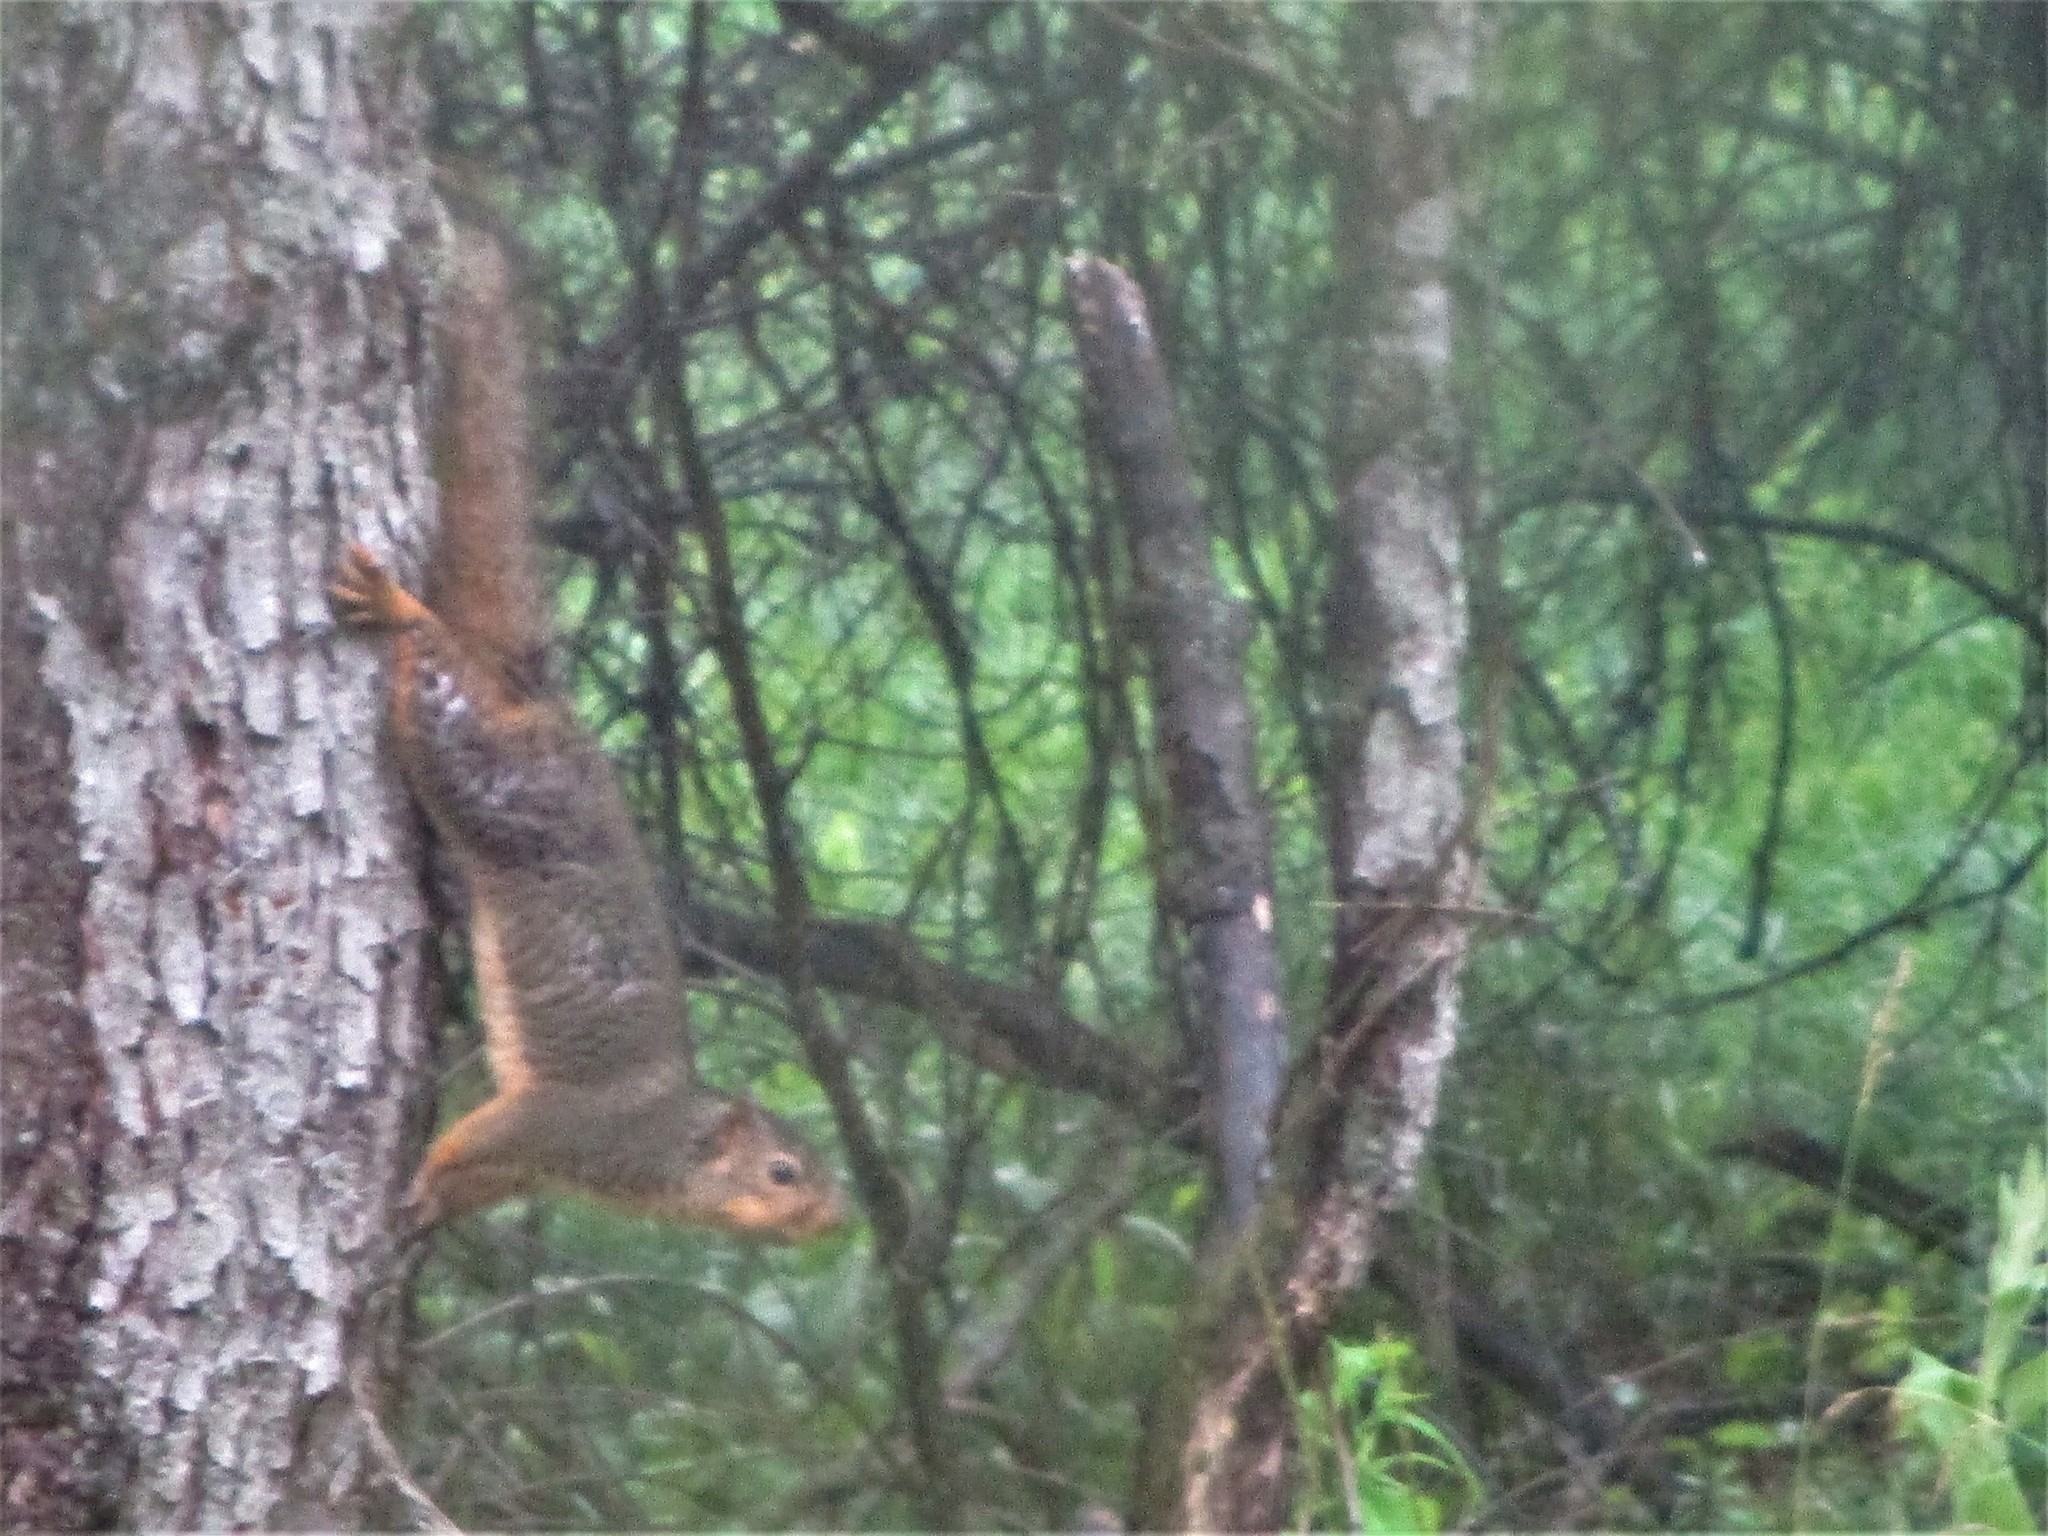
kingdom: Animalia
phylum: Chordata
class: Mammalia
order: Rodentia
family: Sciuridae
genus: Sciurus
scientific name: Sciurus niger
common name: Fox squirrel
